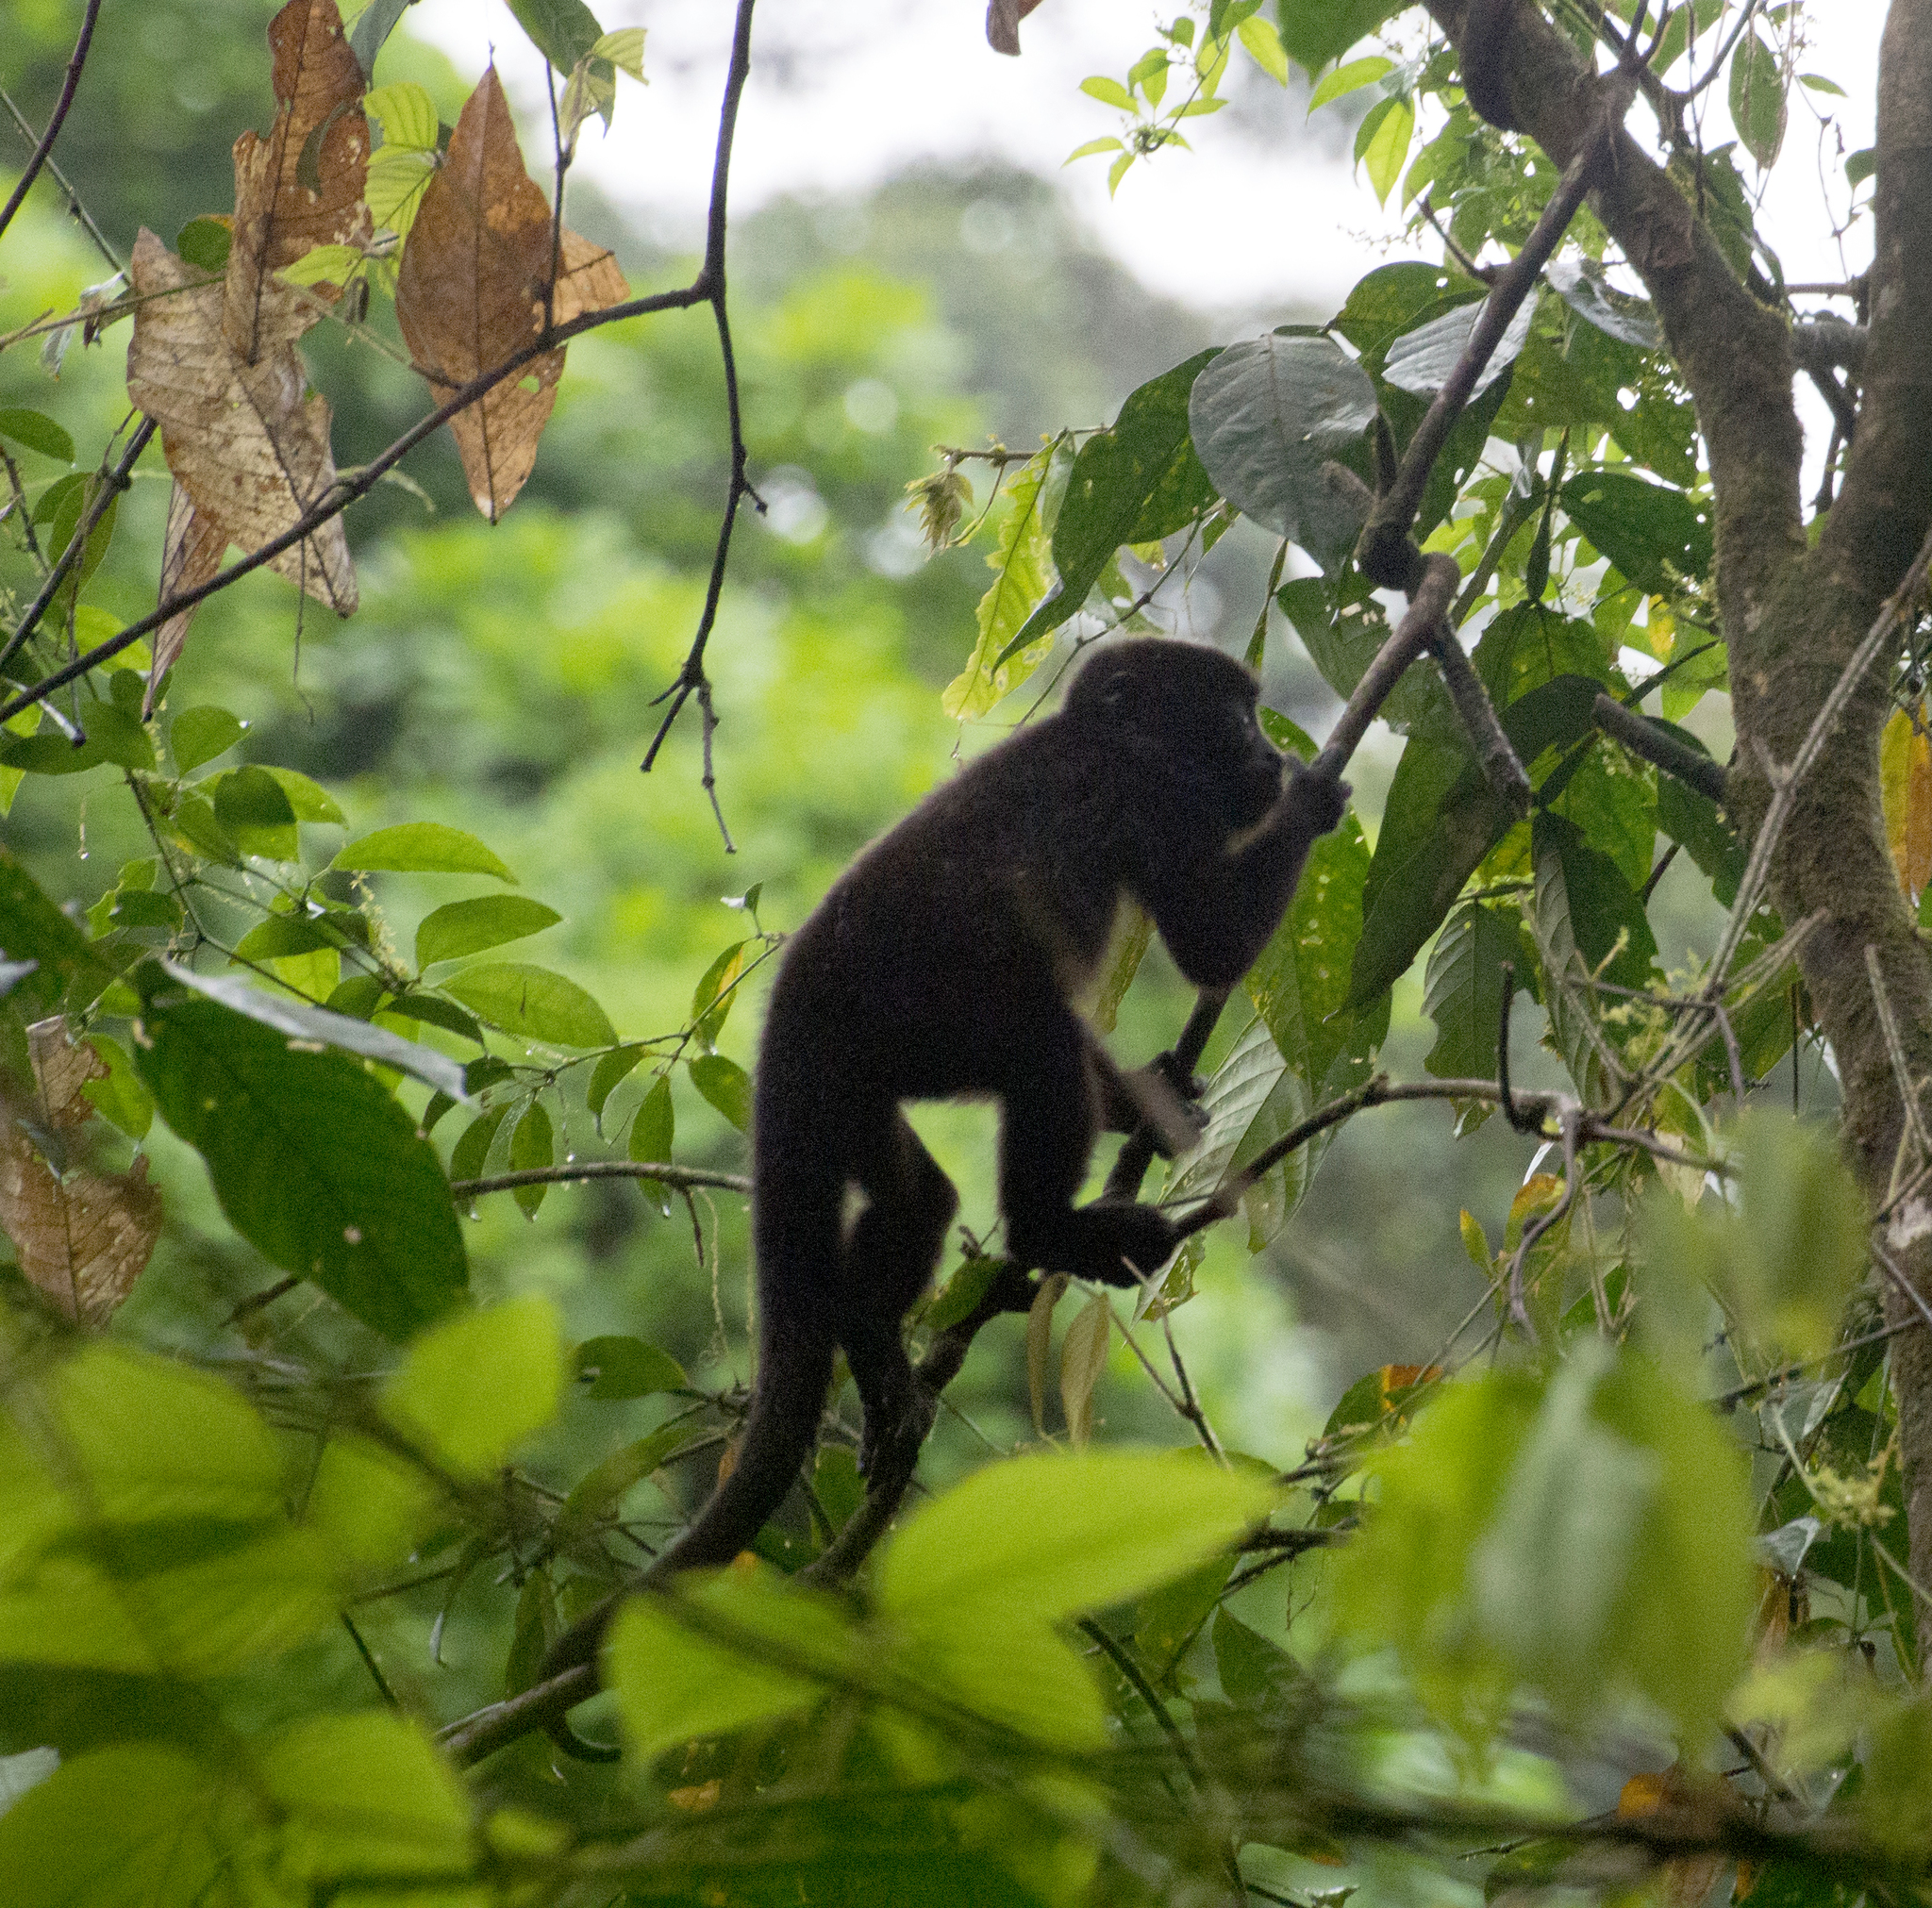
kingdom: Animalia
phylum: Chordata
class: Mammalia
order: Primates
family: Atelidae
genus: Alouatta
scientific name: Alouatta palliata
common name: Mantled howler
